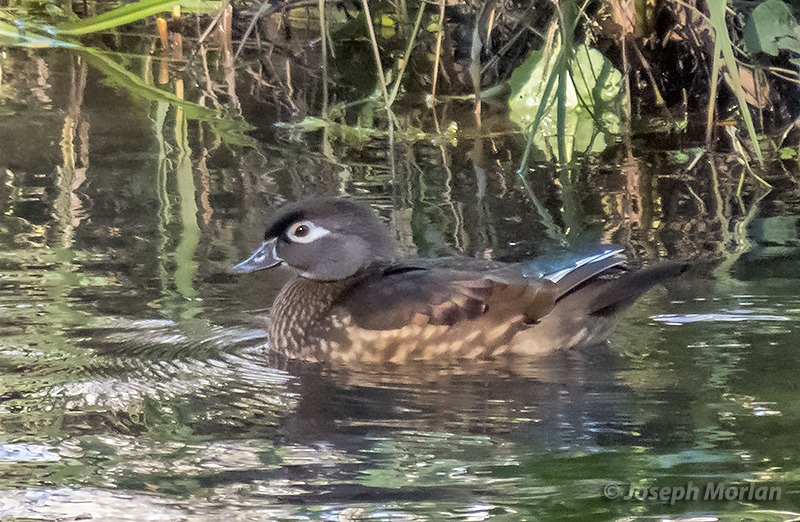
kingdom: Animalia
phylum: Chordata
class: Aves
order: Anseriformes
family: Anatidae
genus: Aix
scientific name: Aix sponsa
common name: Wood duck
